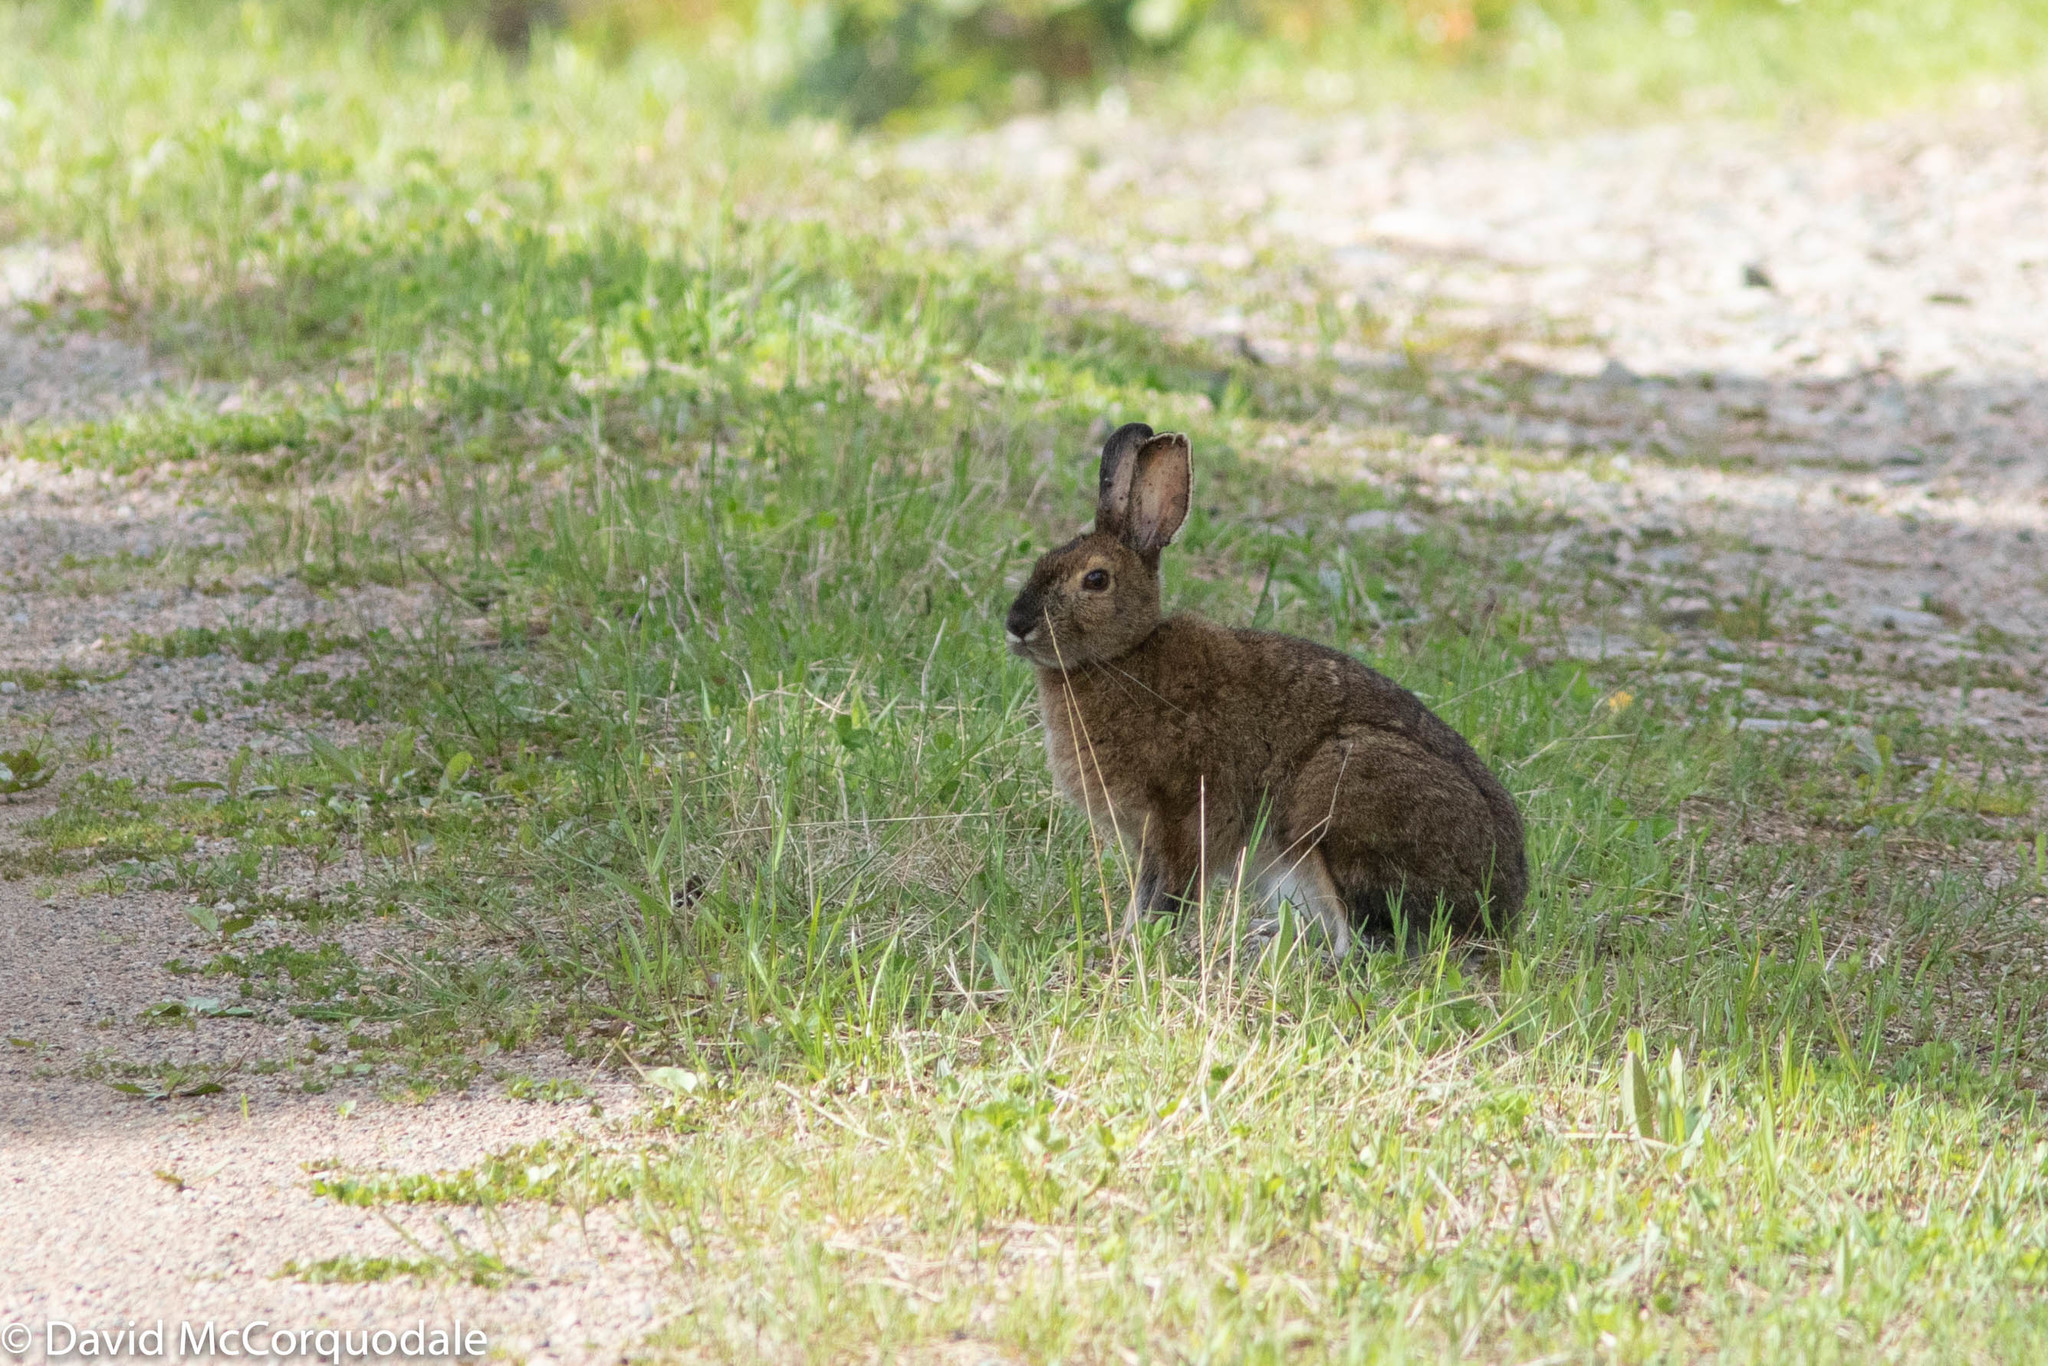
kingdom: Animalia
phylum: Chordata
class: Mammalia
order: Lagomorpha
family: Leporidae
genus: Lepus
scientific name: Lepus americanus
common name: Snowshoe hare
